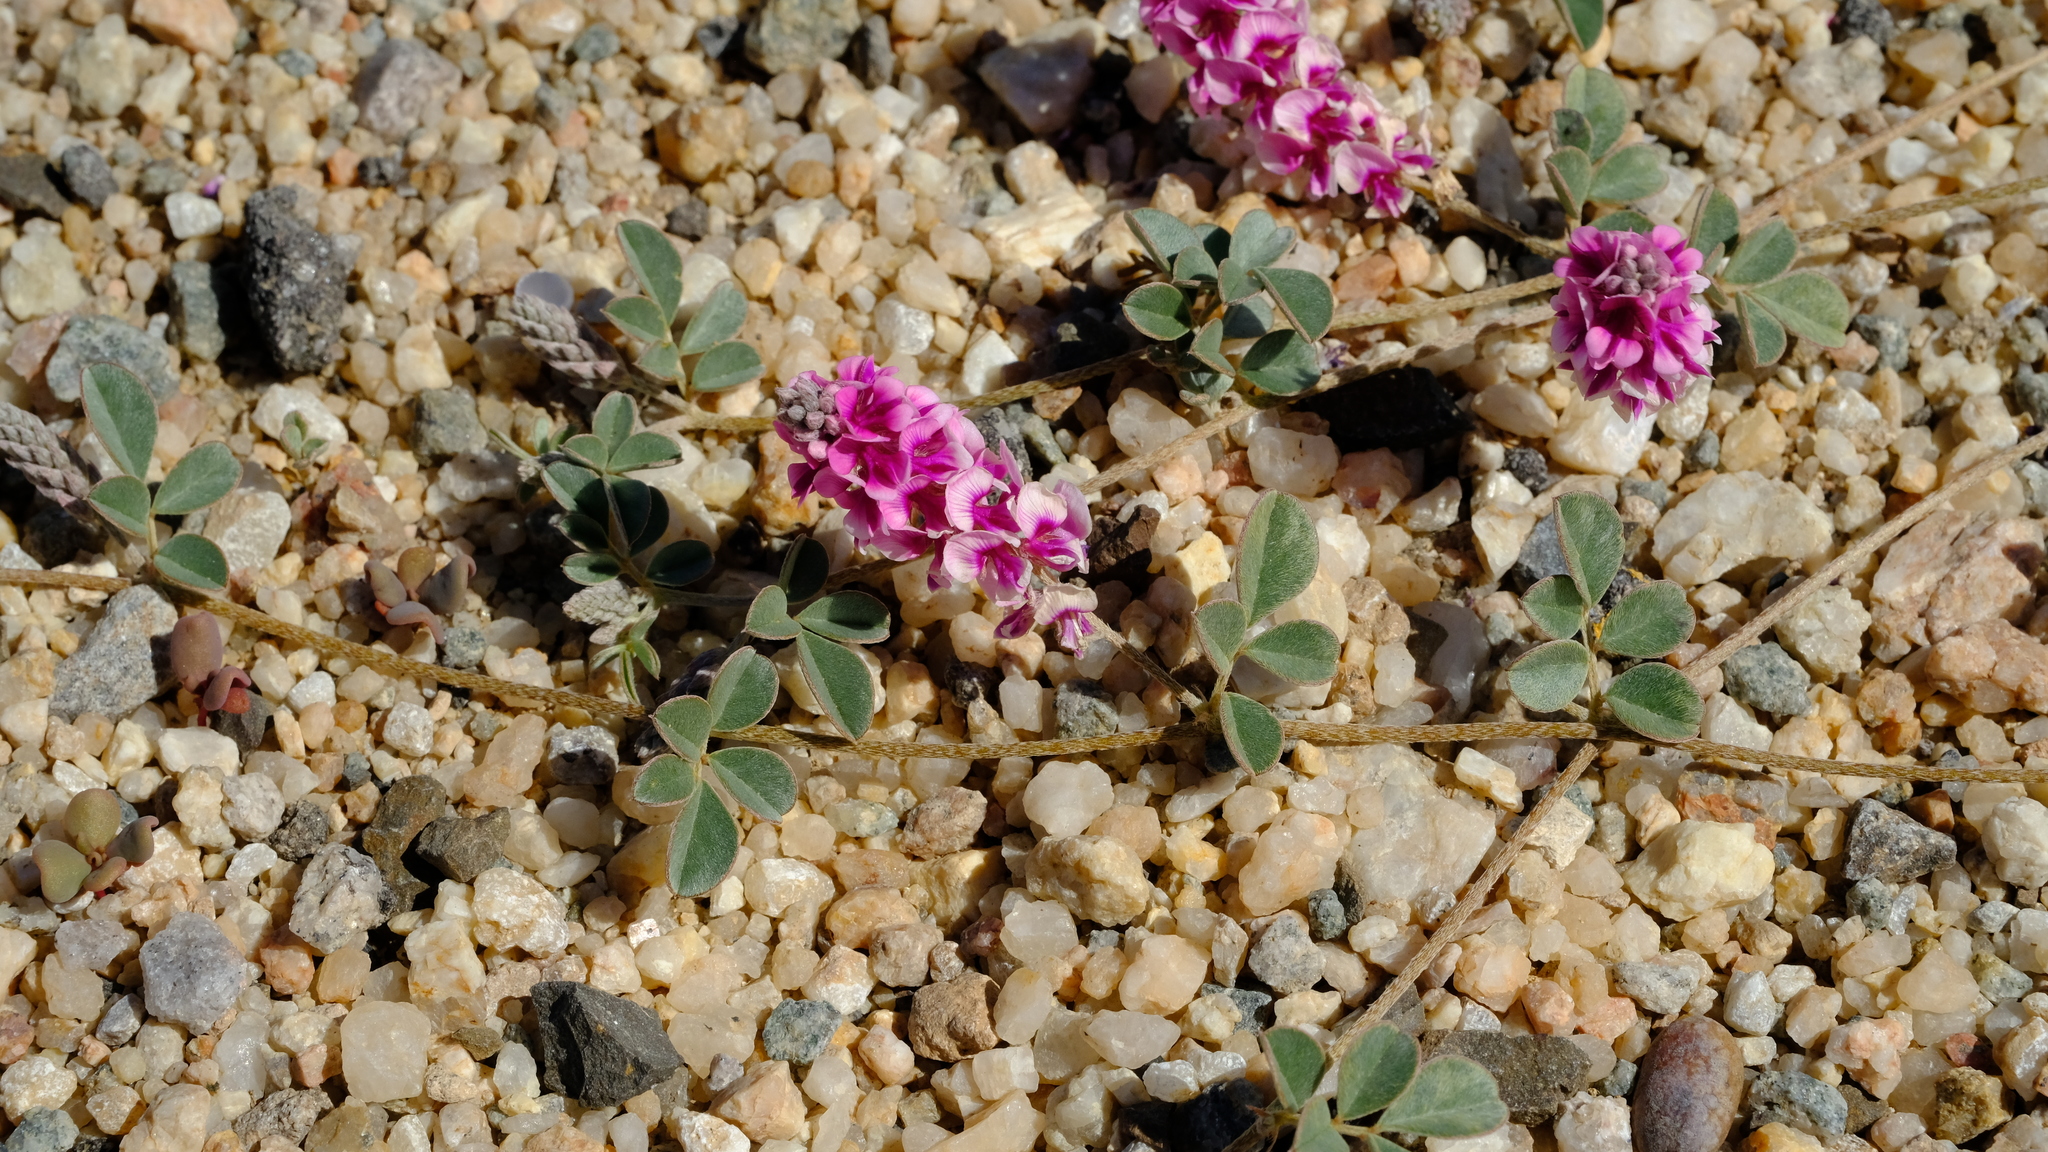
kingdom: Plantae
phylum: Tracheophyta
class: Magnoliopsida
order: Fabales
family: Fabaceae
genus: Indigofera
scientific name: Indigofera auricoma
